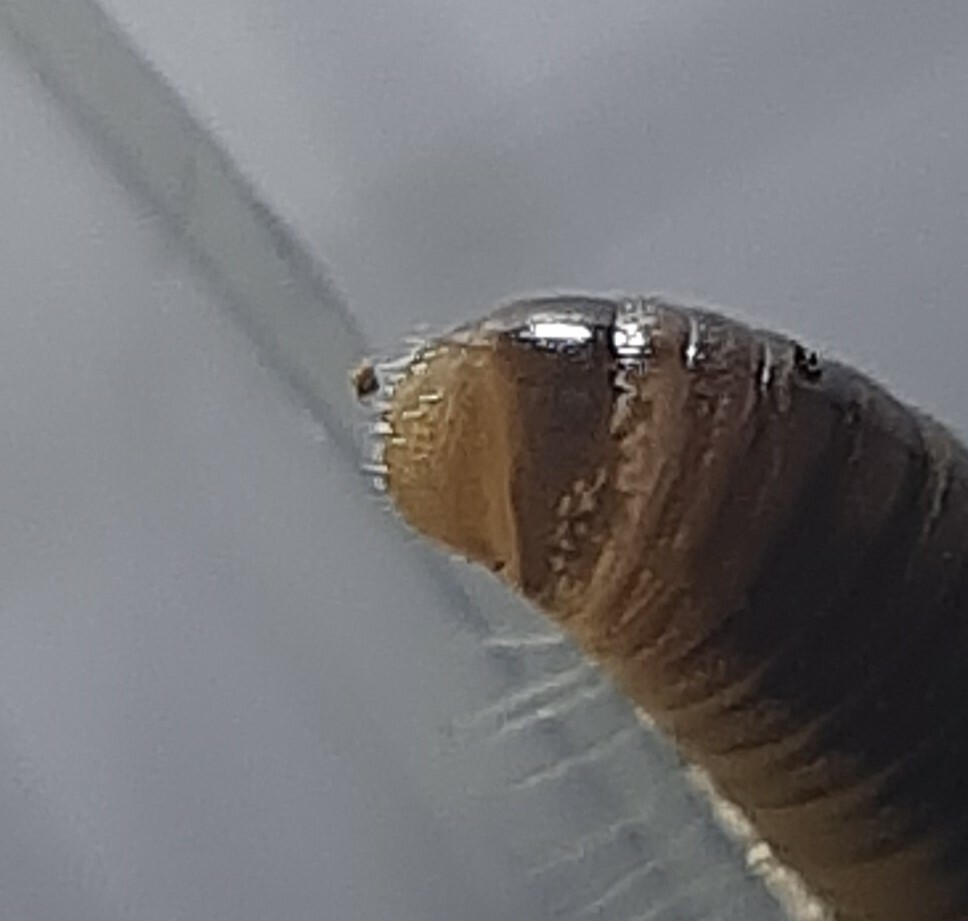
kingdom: Animalia
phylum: Arthropoda
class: Diplopoda
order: Julida
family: Julidae
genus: Cylindroiulus
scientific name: Cylindroiulus latzeli
